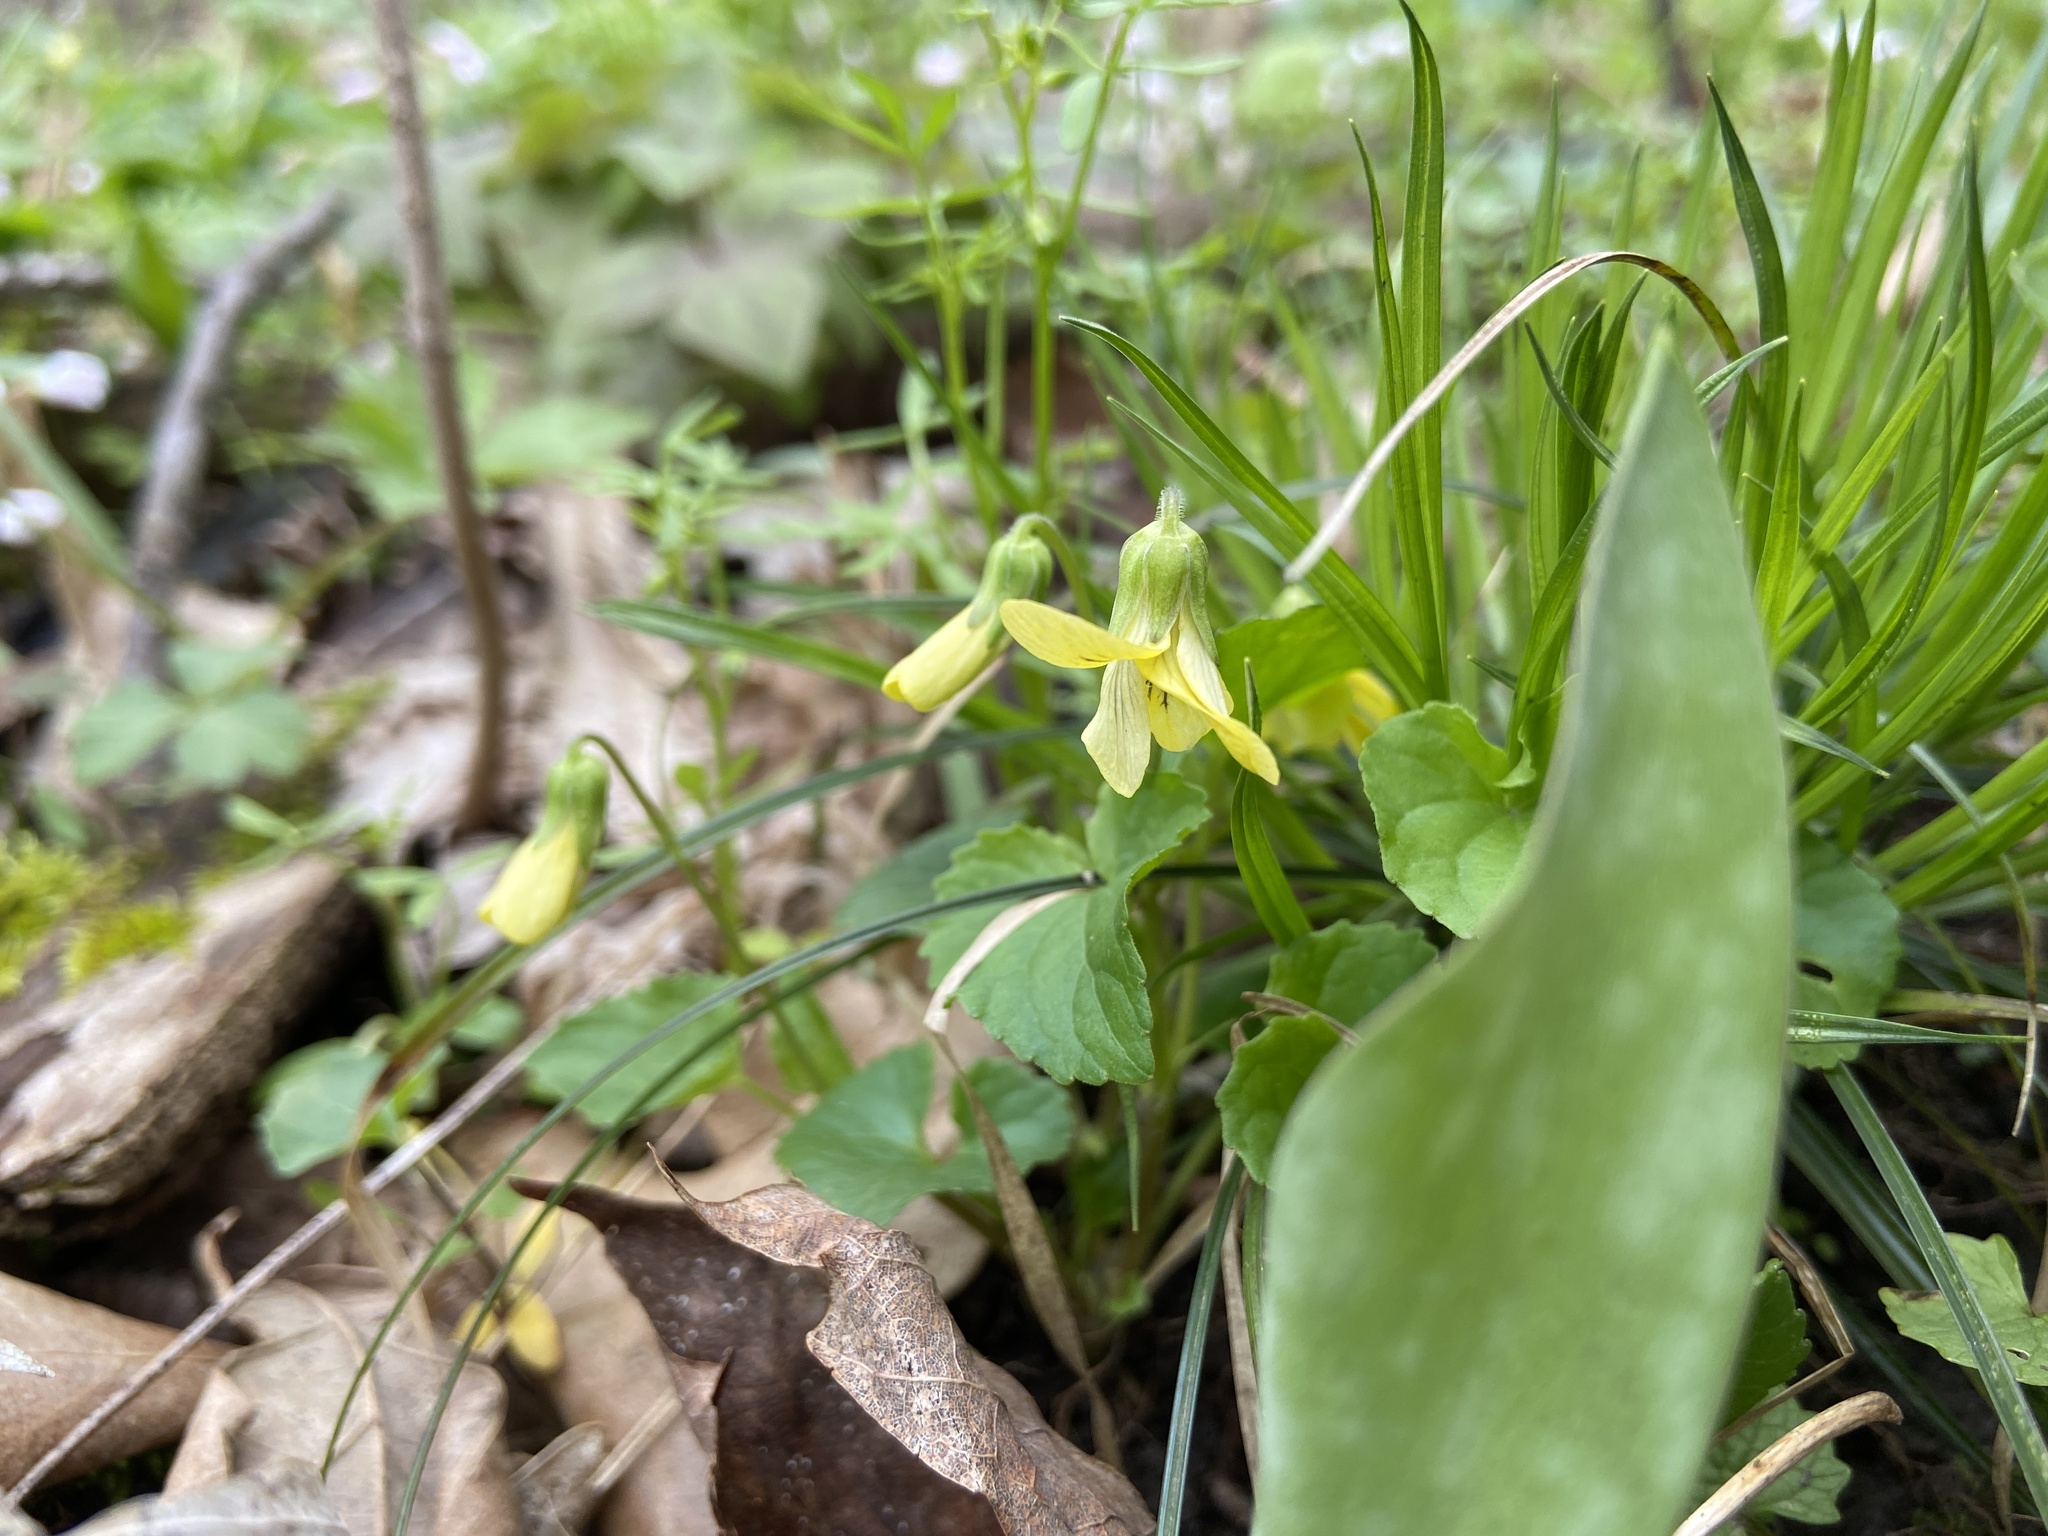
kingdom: Plantae
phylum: Tracheophyta
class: Magnoliopsida
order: Malpighiales
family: Violaceae
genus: Viola
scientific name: Viola eriocarpa
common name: Smooth yellow violet
